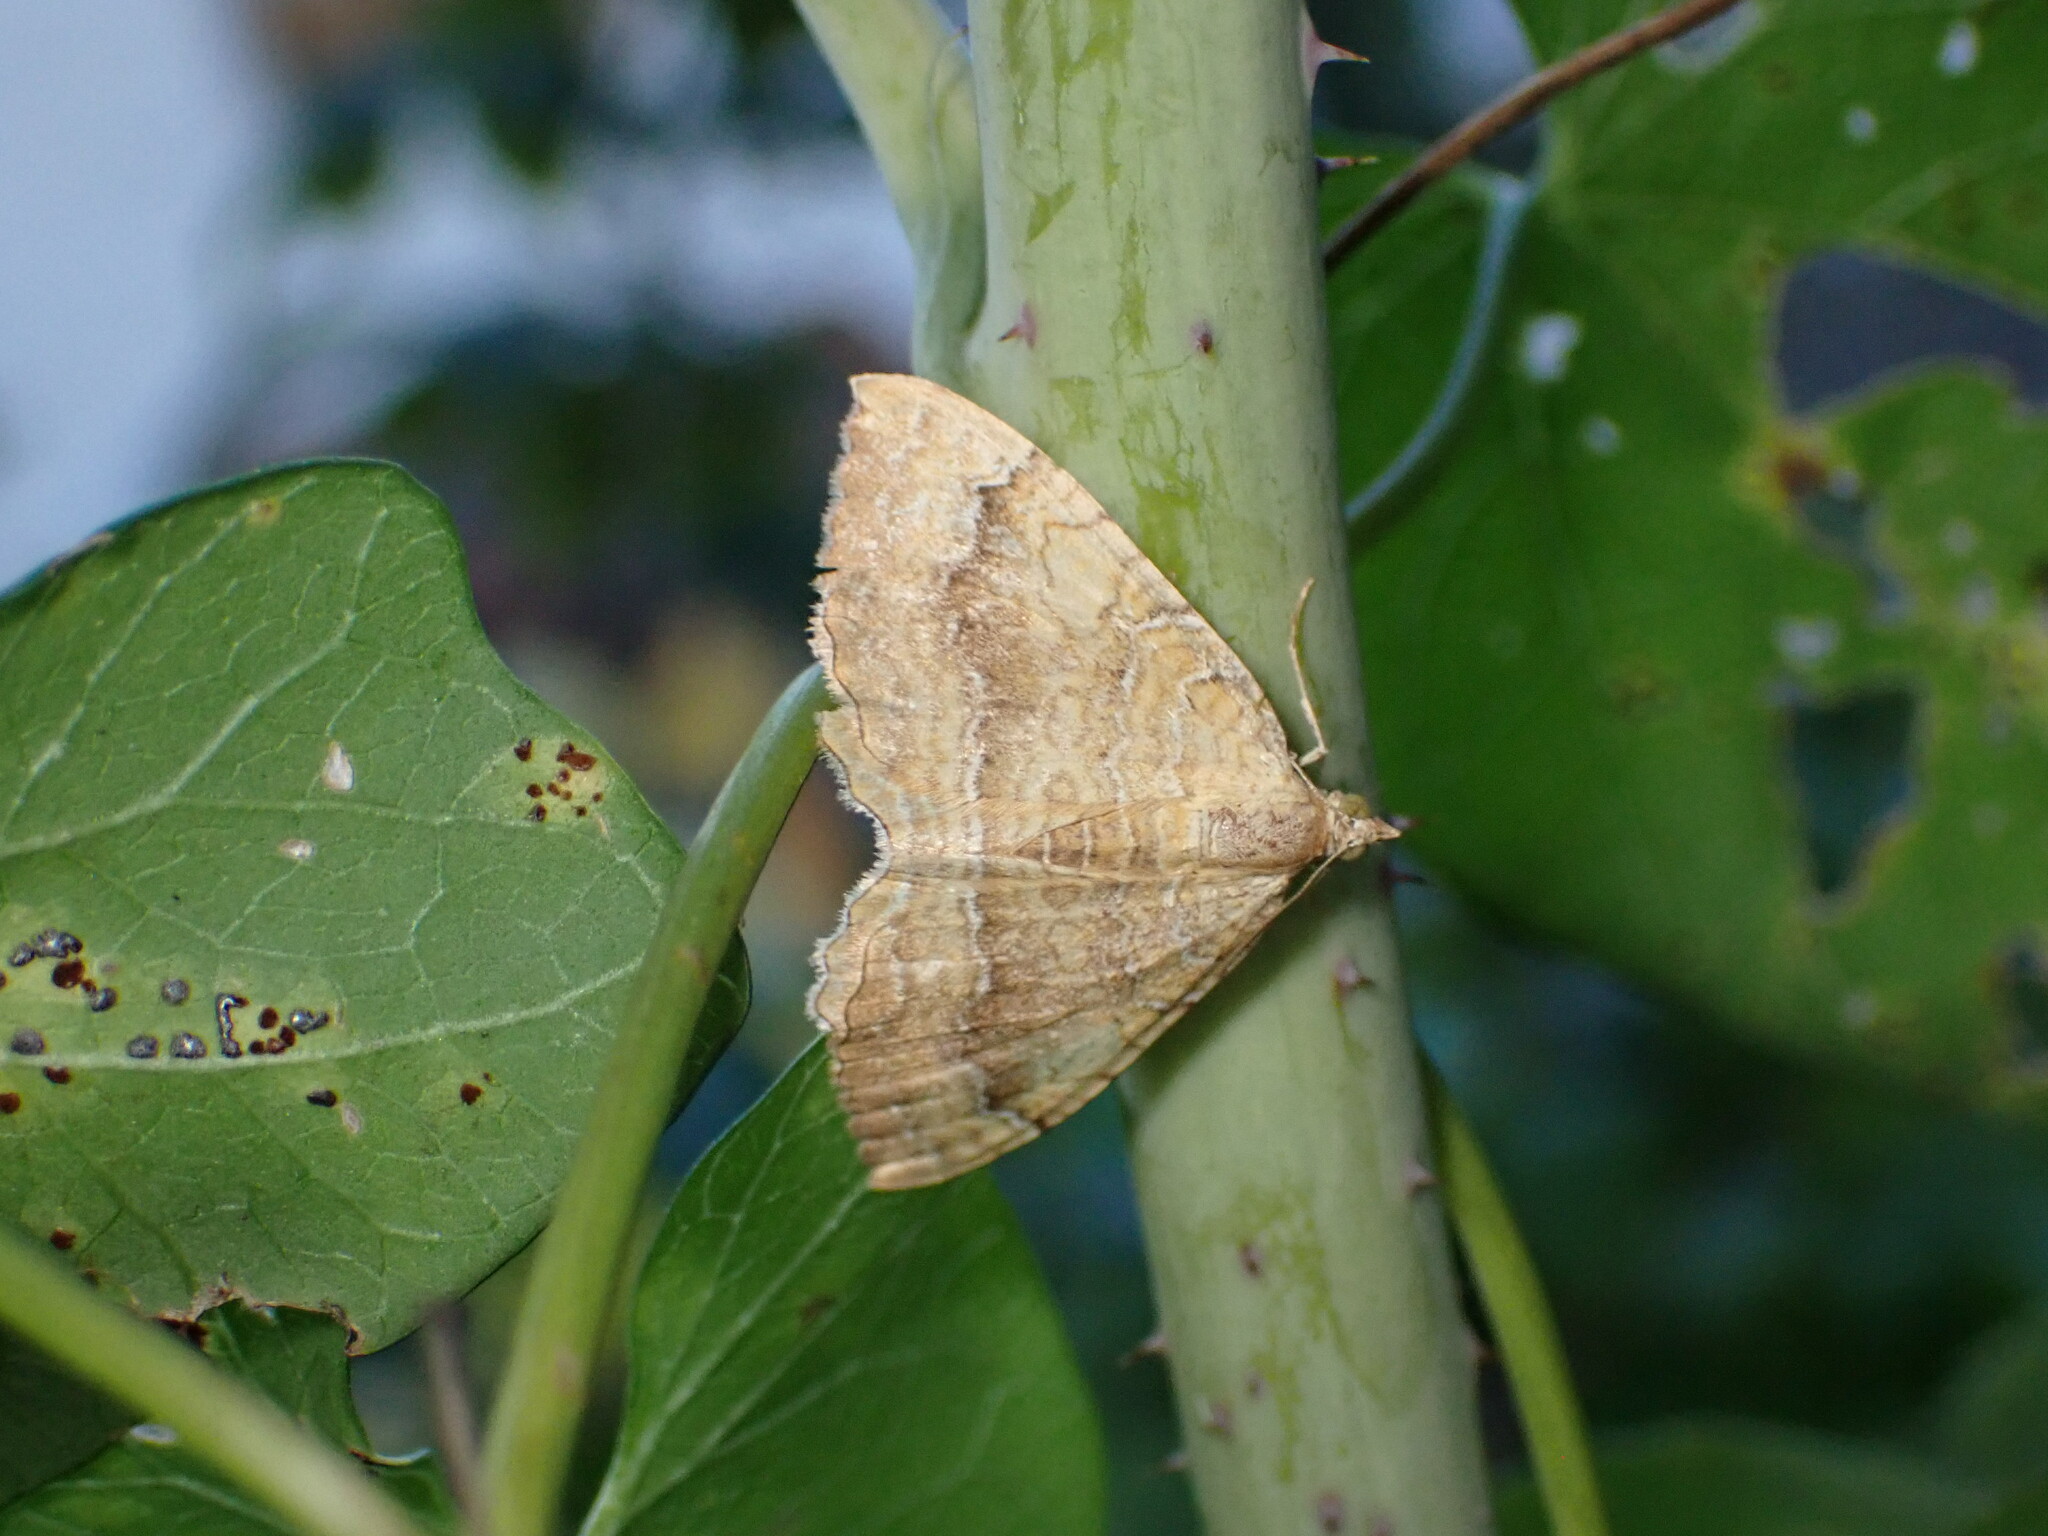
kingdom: Animalia
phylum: Arthropoda
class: Insecta
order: Lepidoptera
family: Geometridae
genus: Camptogramma
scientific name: Camptogramma bilineata
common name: Yellow shell
